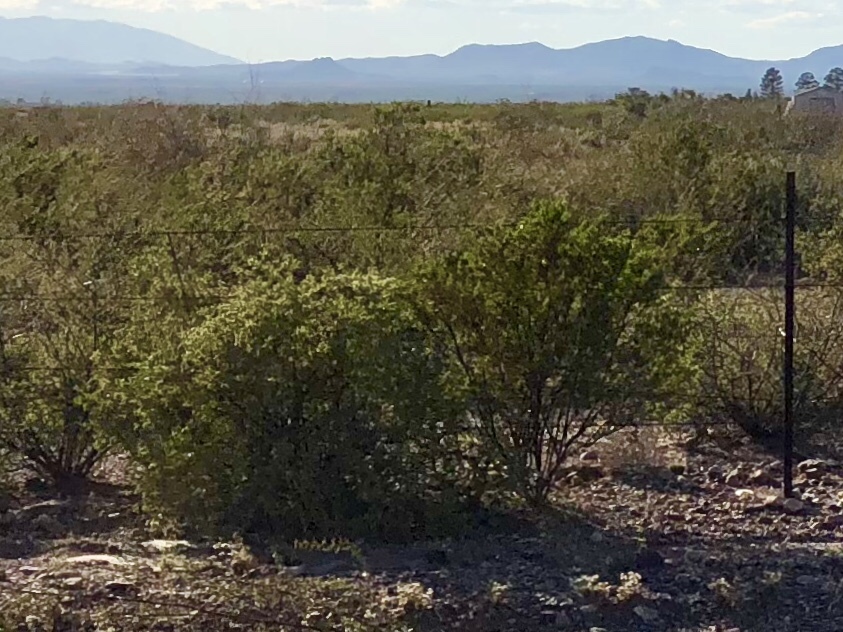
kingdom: Plantae
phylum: Tracheophyta
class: Magnoliopsida
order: Zygophyllales
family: Zygophyllaceae
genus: Larrea
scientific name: Larrea tridentata
